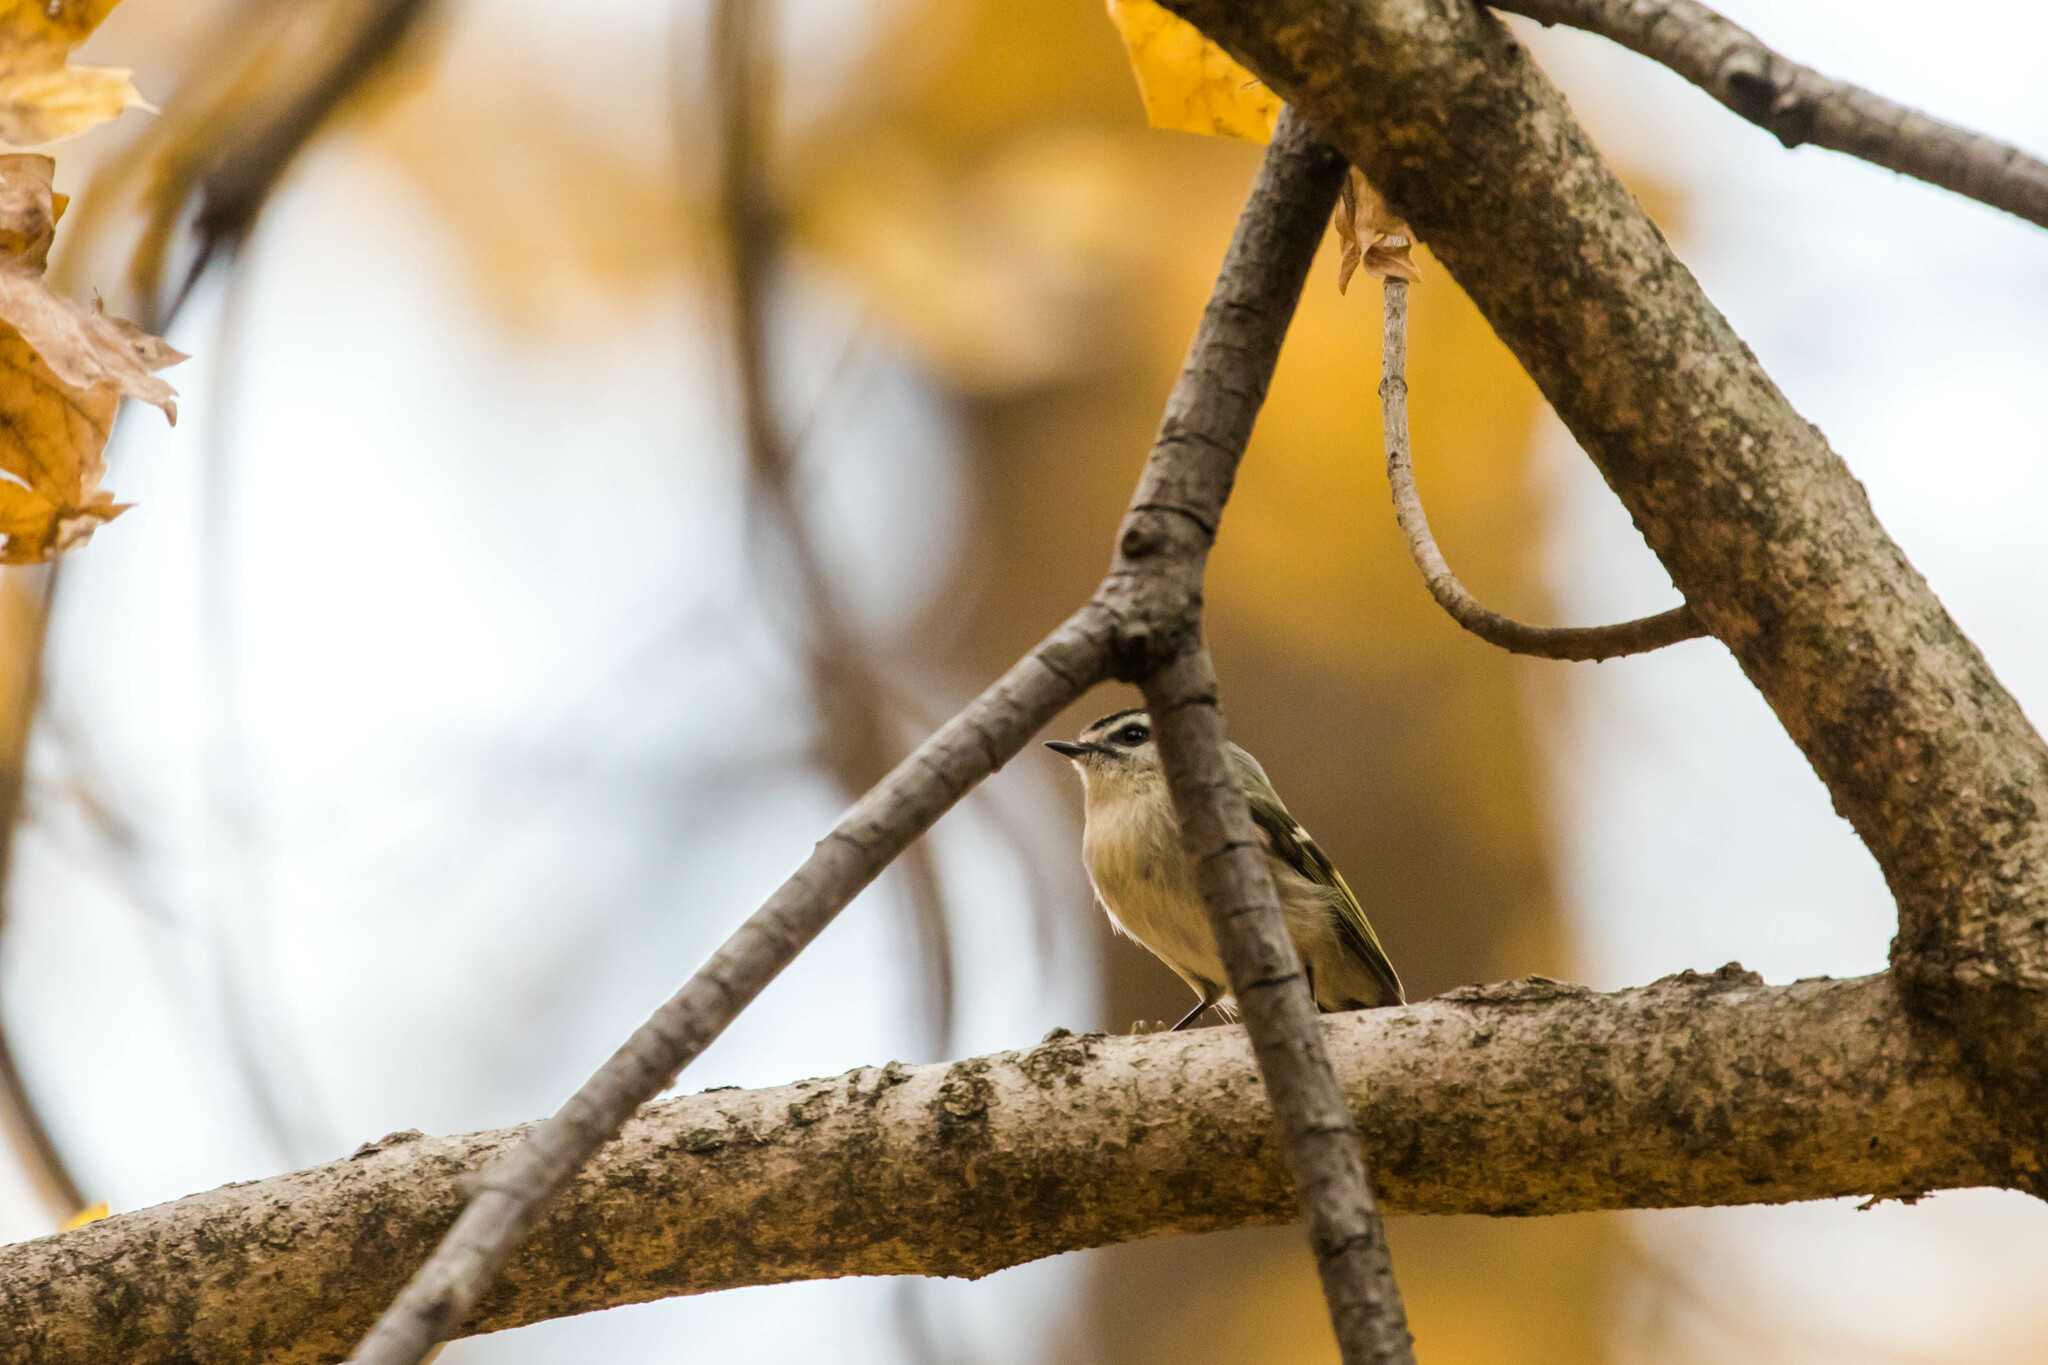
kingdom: Animalia
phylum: Chordata
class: Aves
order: Passeriformes
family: Regulidae
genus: Regulus
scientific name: Regulus satrapa
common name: Golden-crowned kinglet
